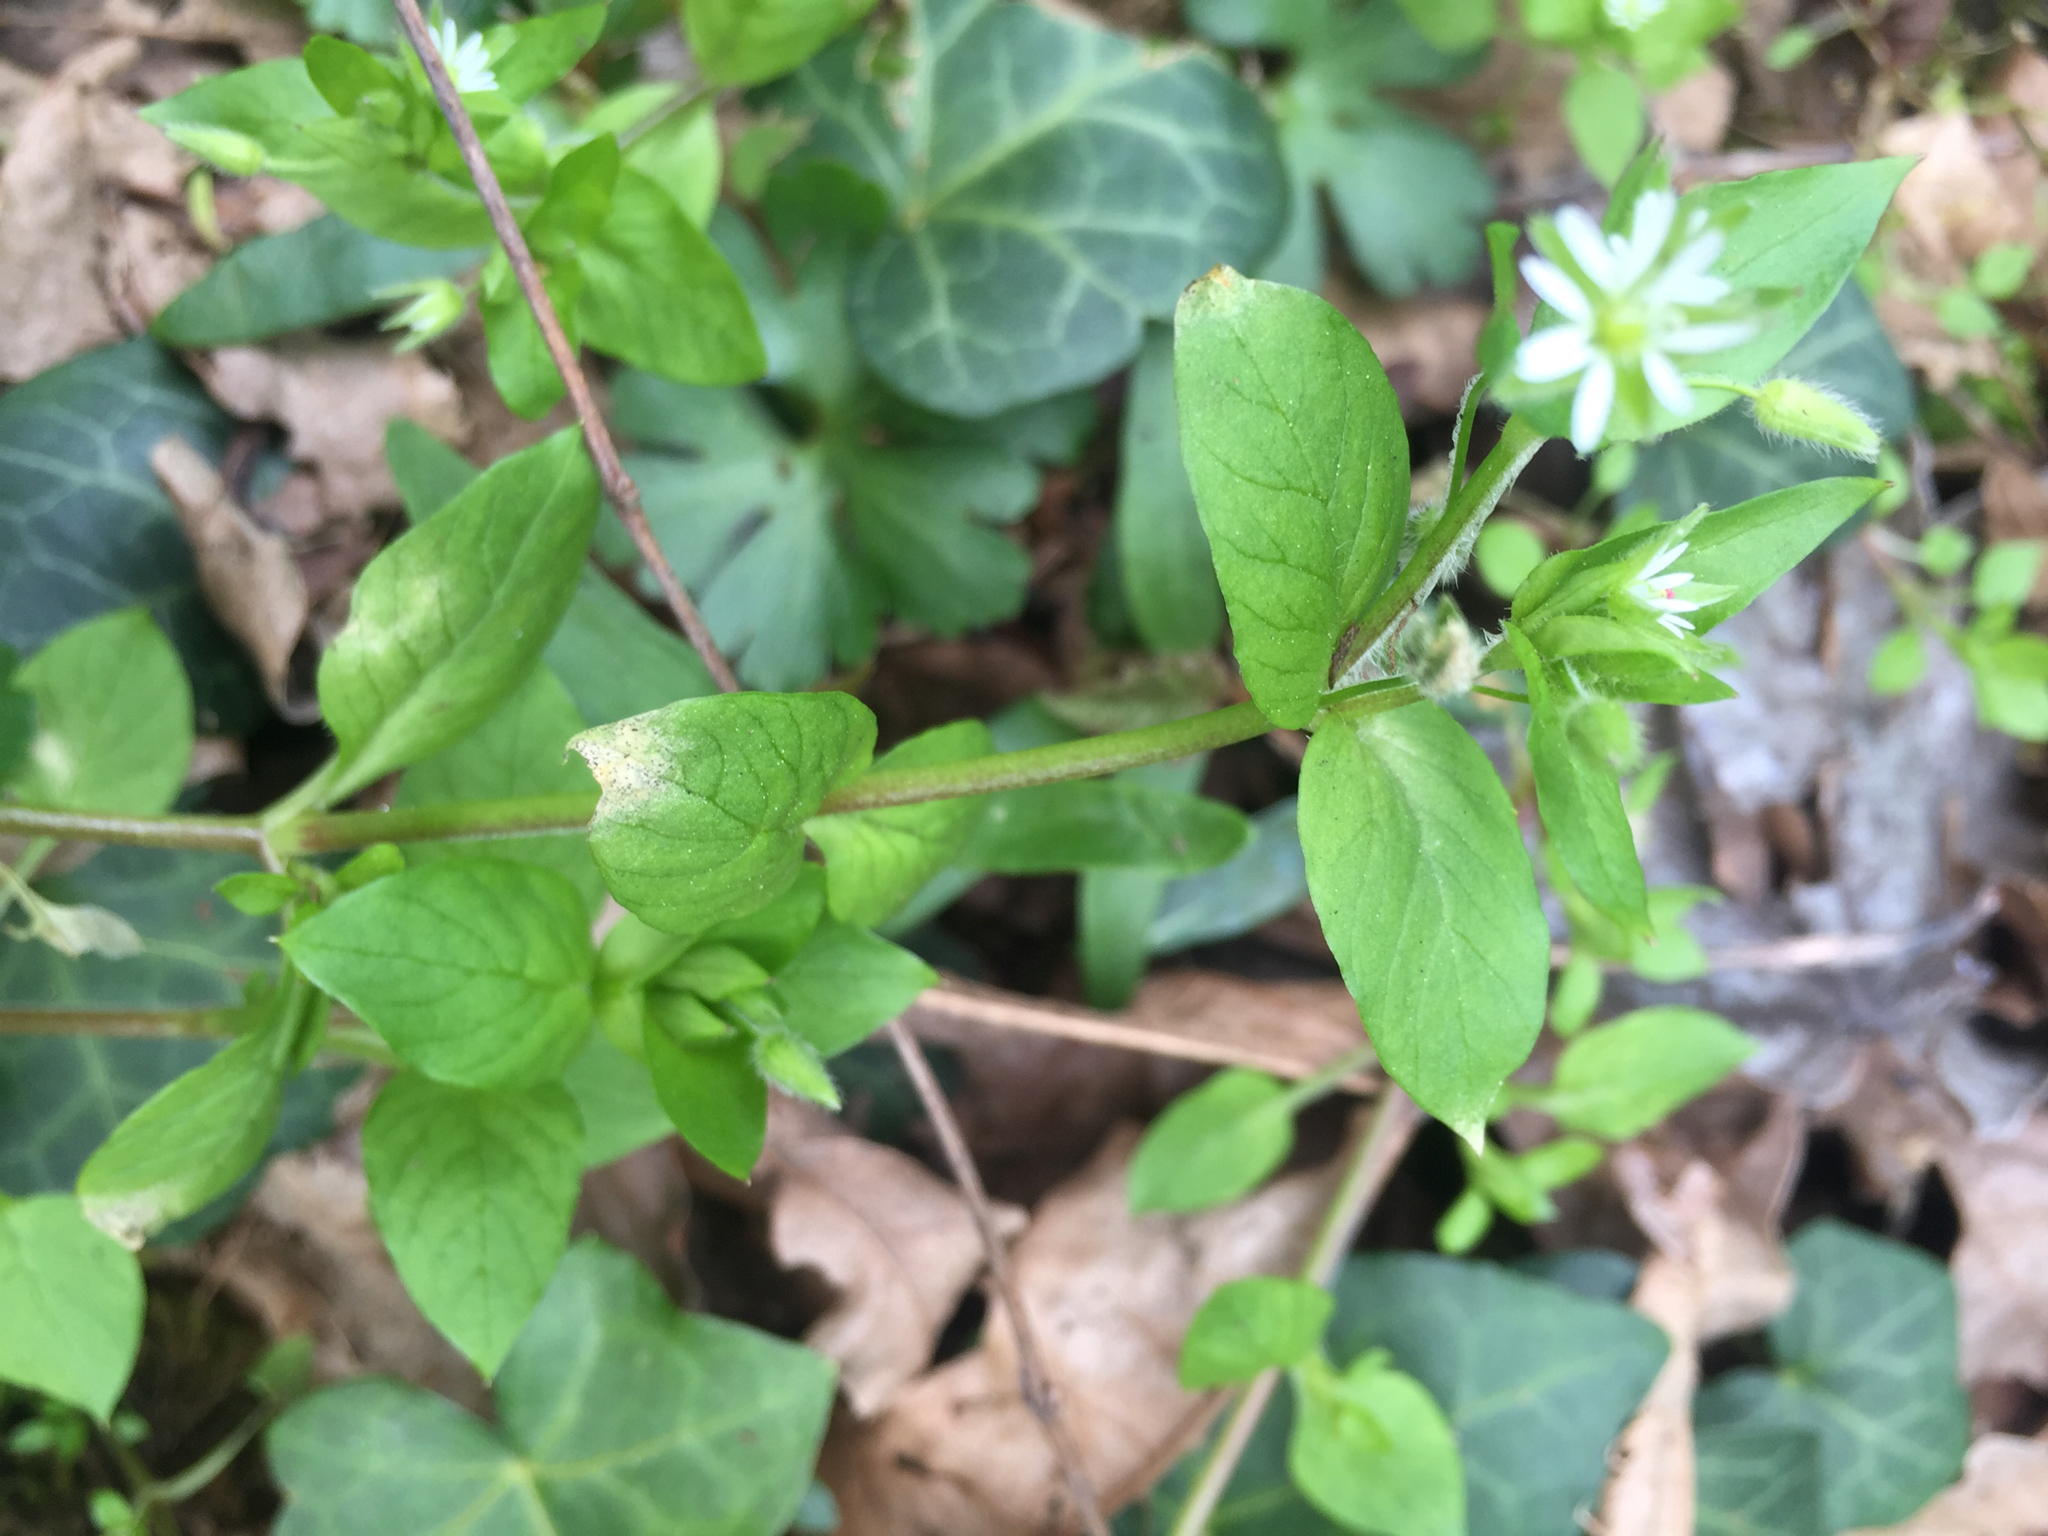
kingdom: Plantae
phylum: Tracheophyta
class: Magnoliopsida
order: Caryophyllales
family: Caryophyllaceae
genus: Stellaria
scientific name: Stellaria media
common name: Common chickweed
